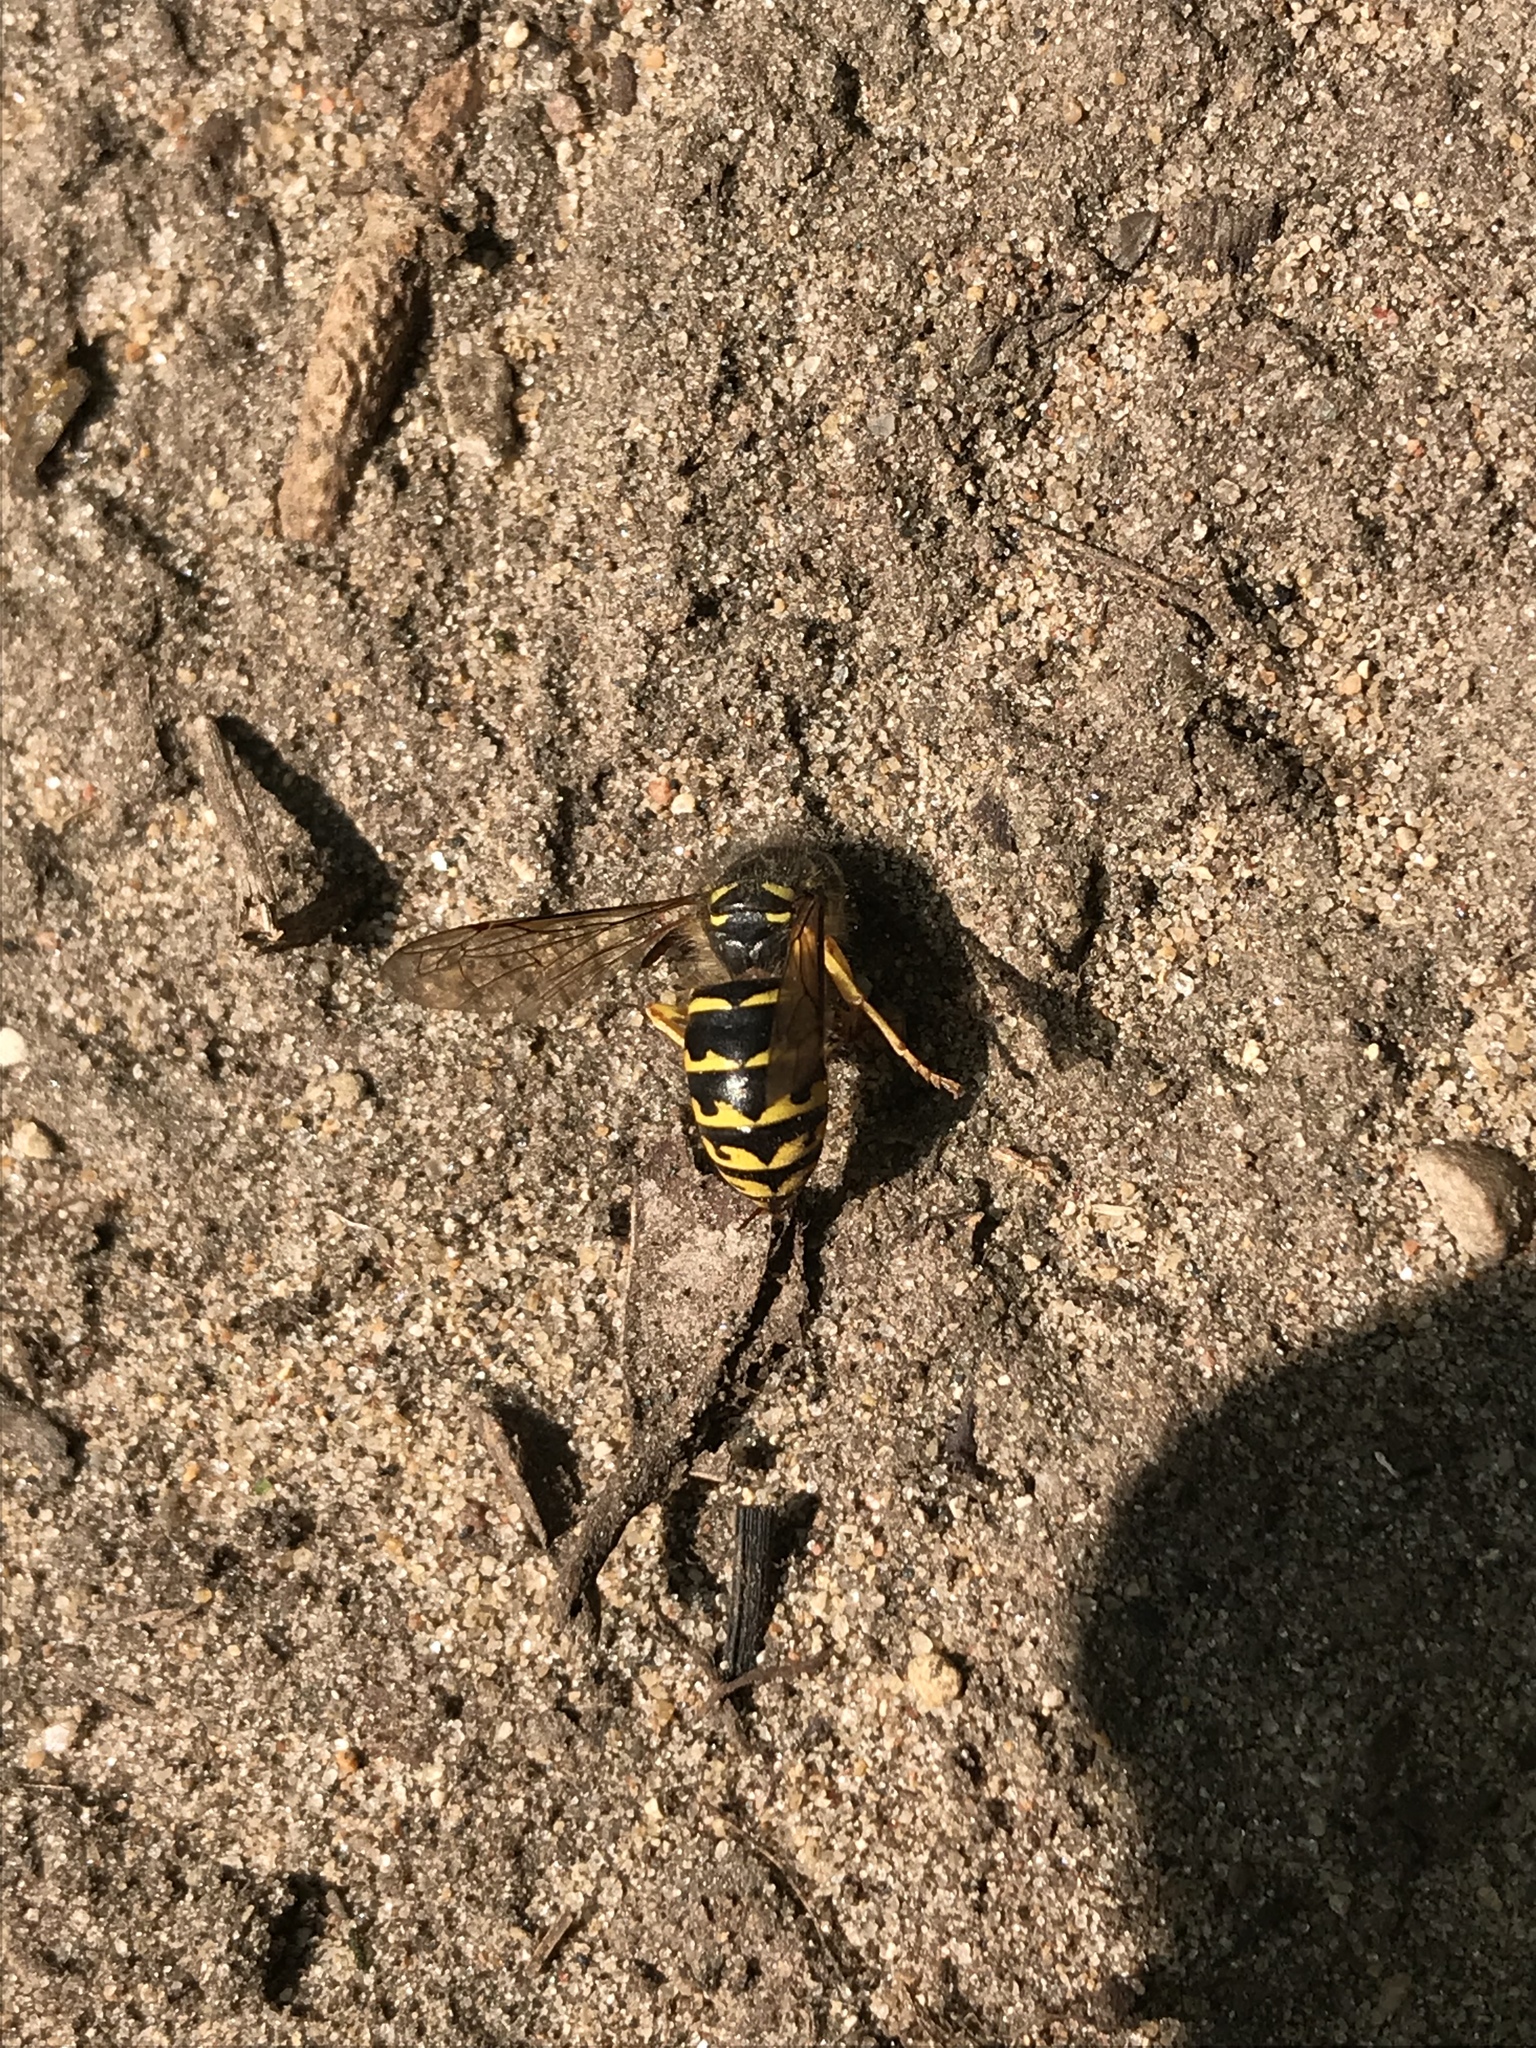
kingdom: Animalia
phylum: Arthropoda
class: Insecta
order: Hymenoptera
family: Vespidae
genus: Dolichovespula
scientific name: Dolichovespula arenaria
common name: Aerial yellowjacket
